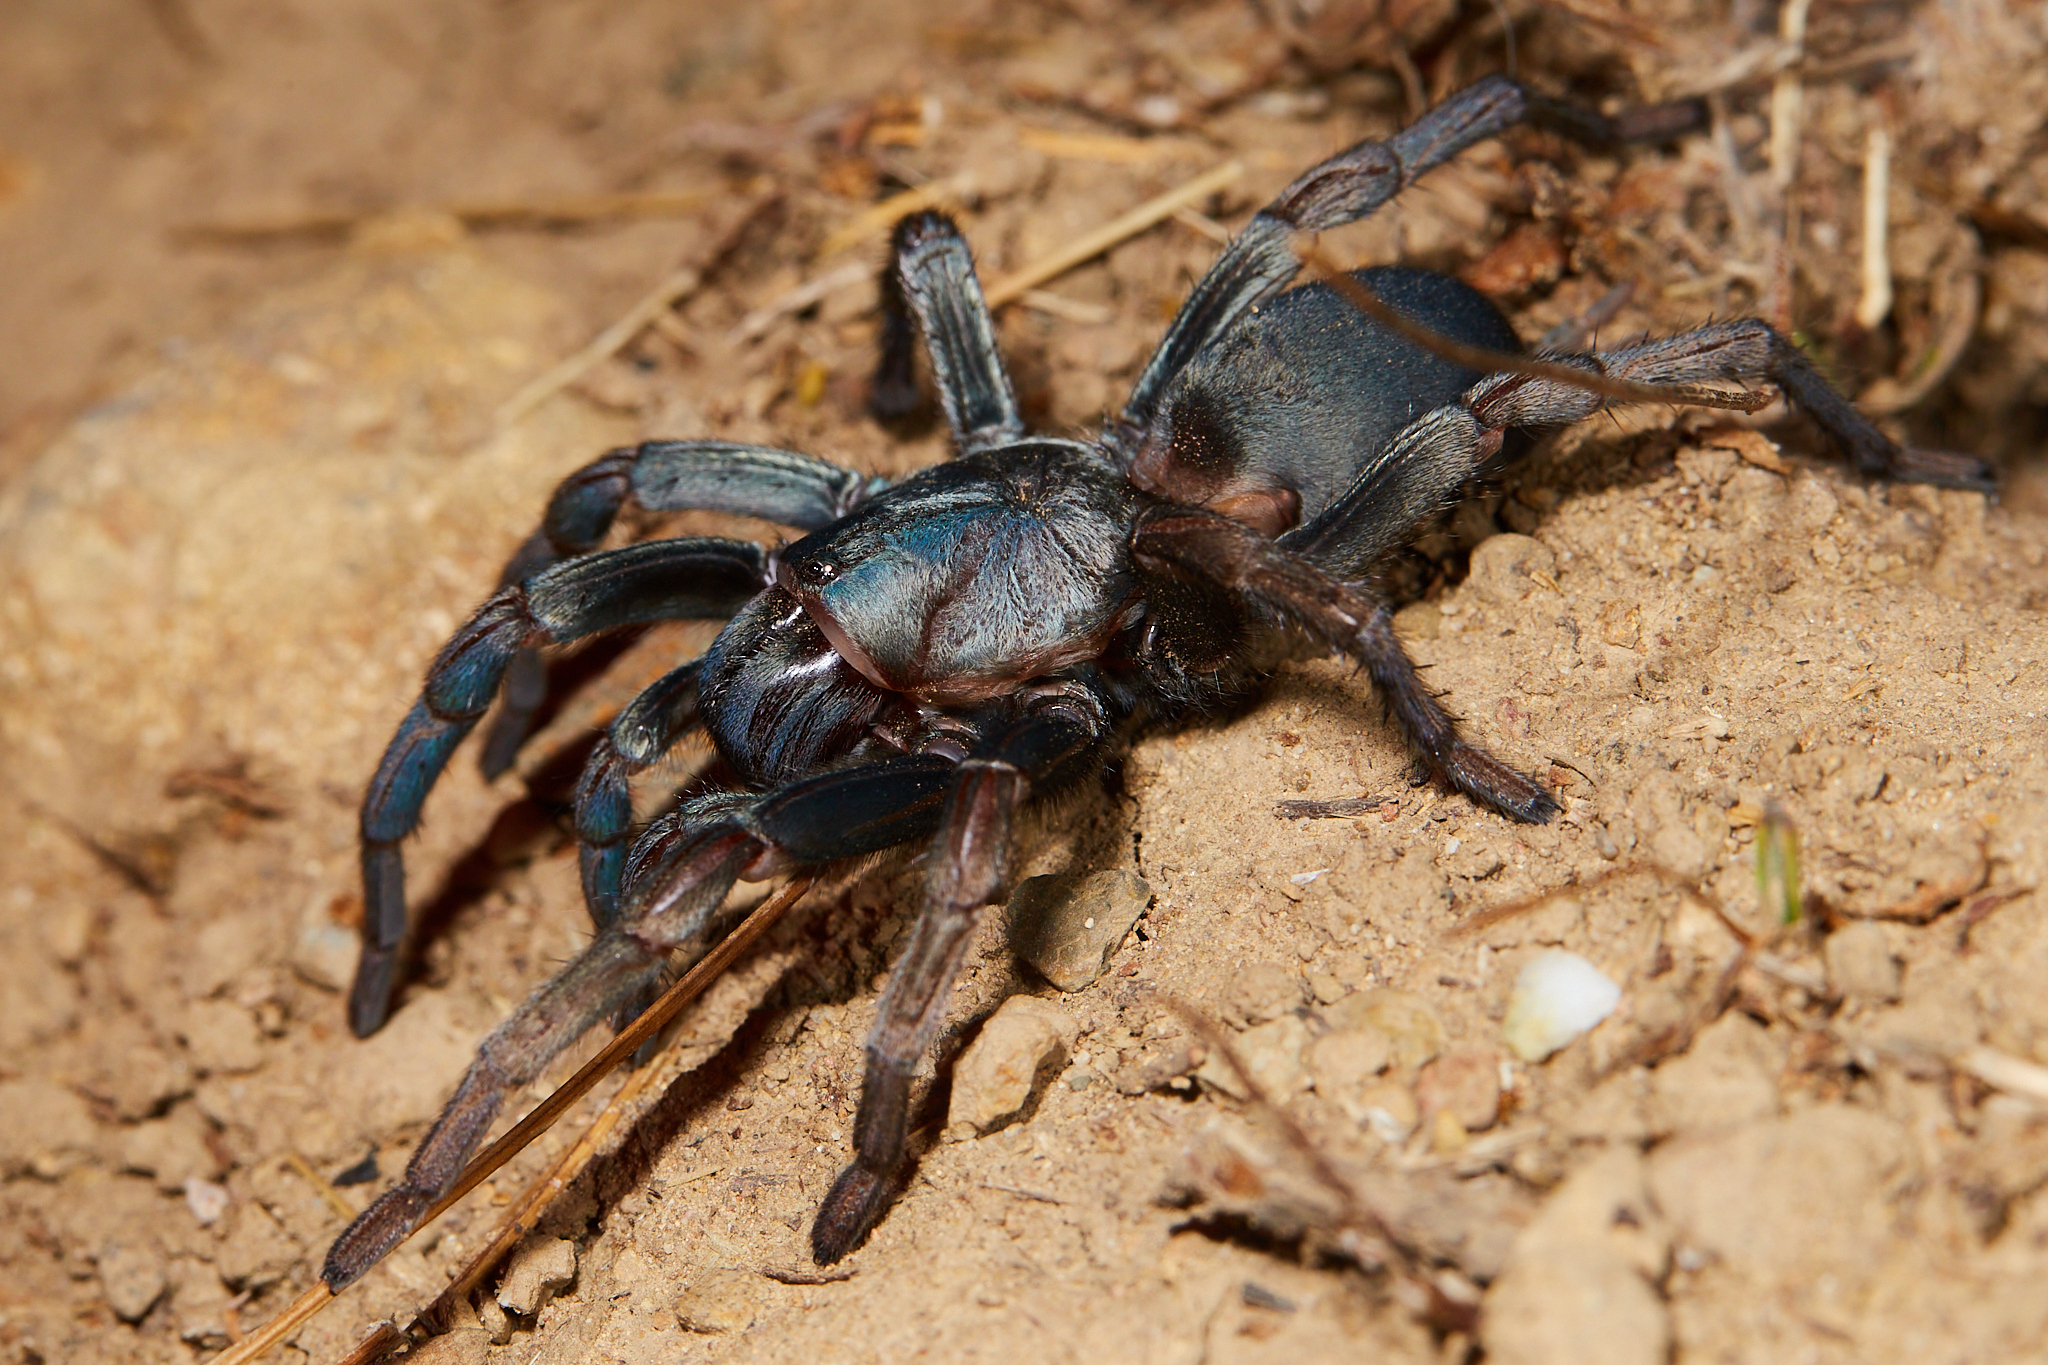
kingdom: Animalia
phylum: Arthropoda
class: Arachnida
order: Araneae
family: Nemesiidae
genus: Calisoga
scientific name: Calisoga longitarsis
